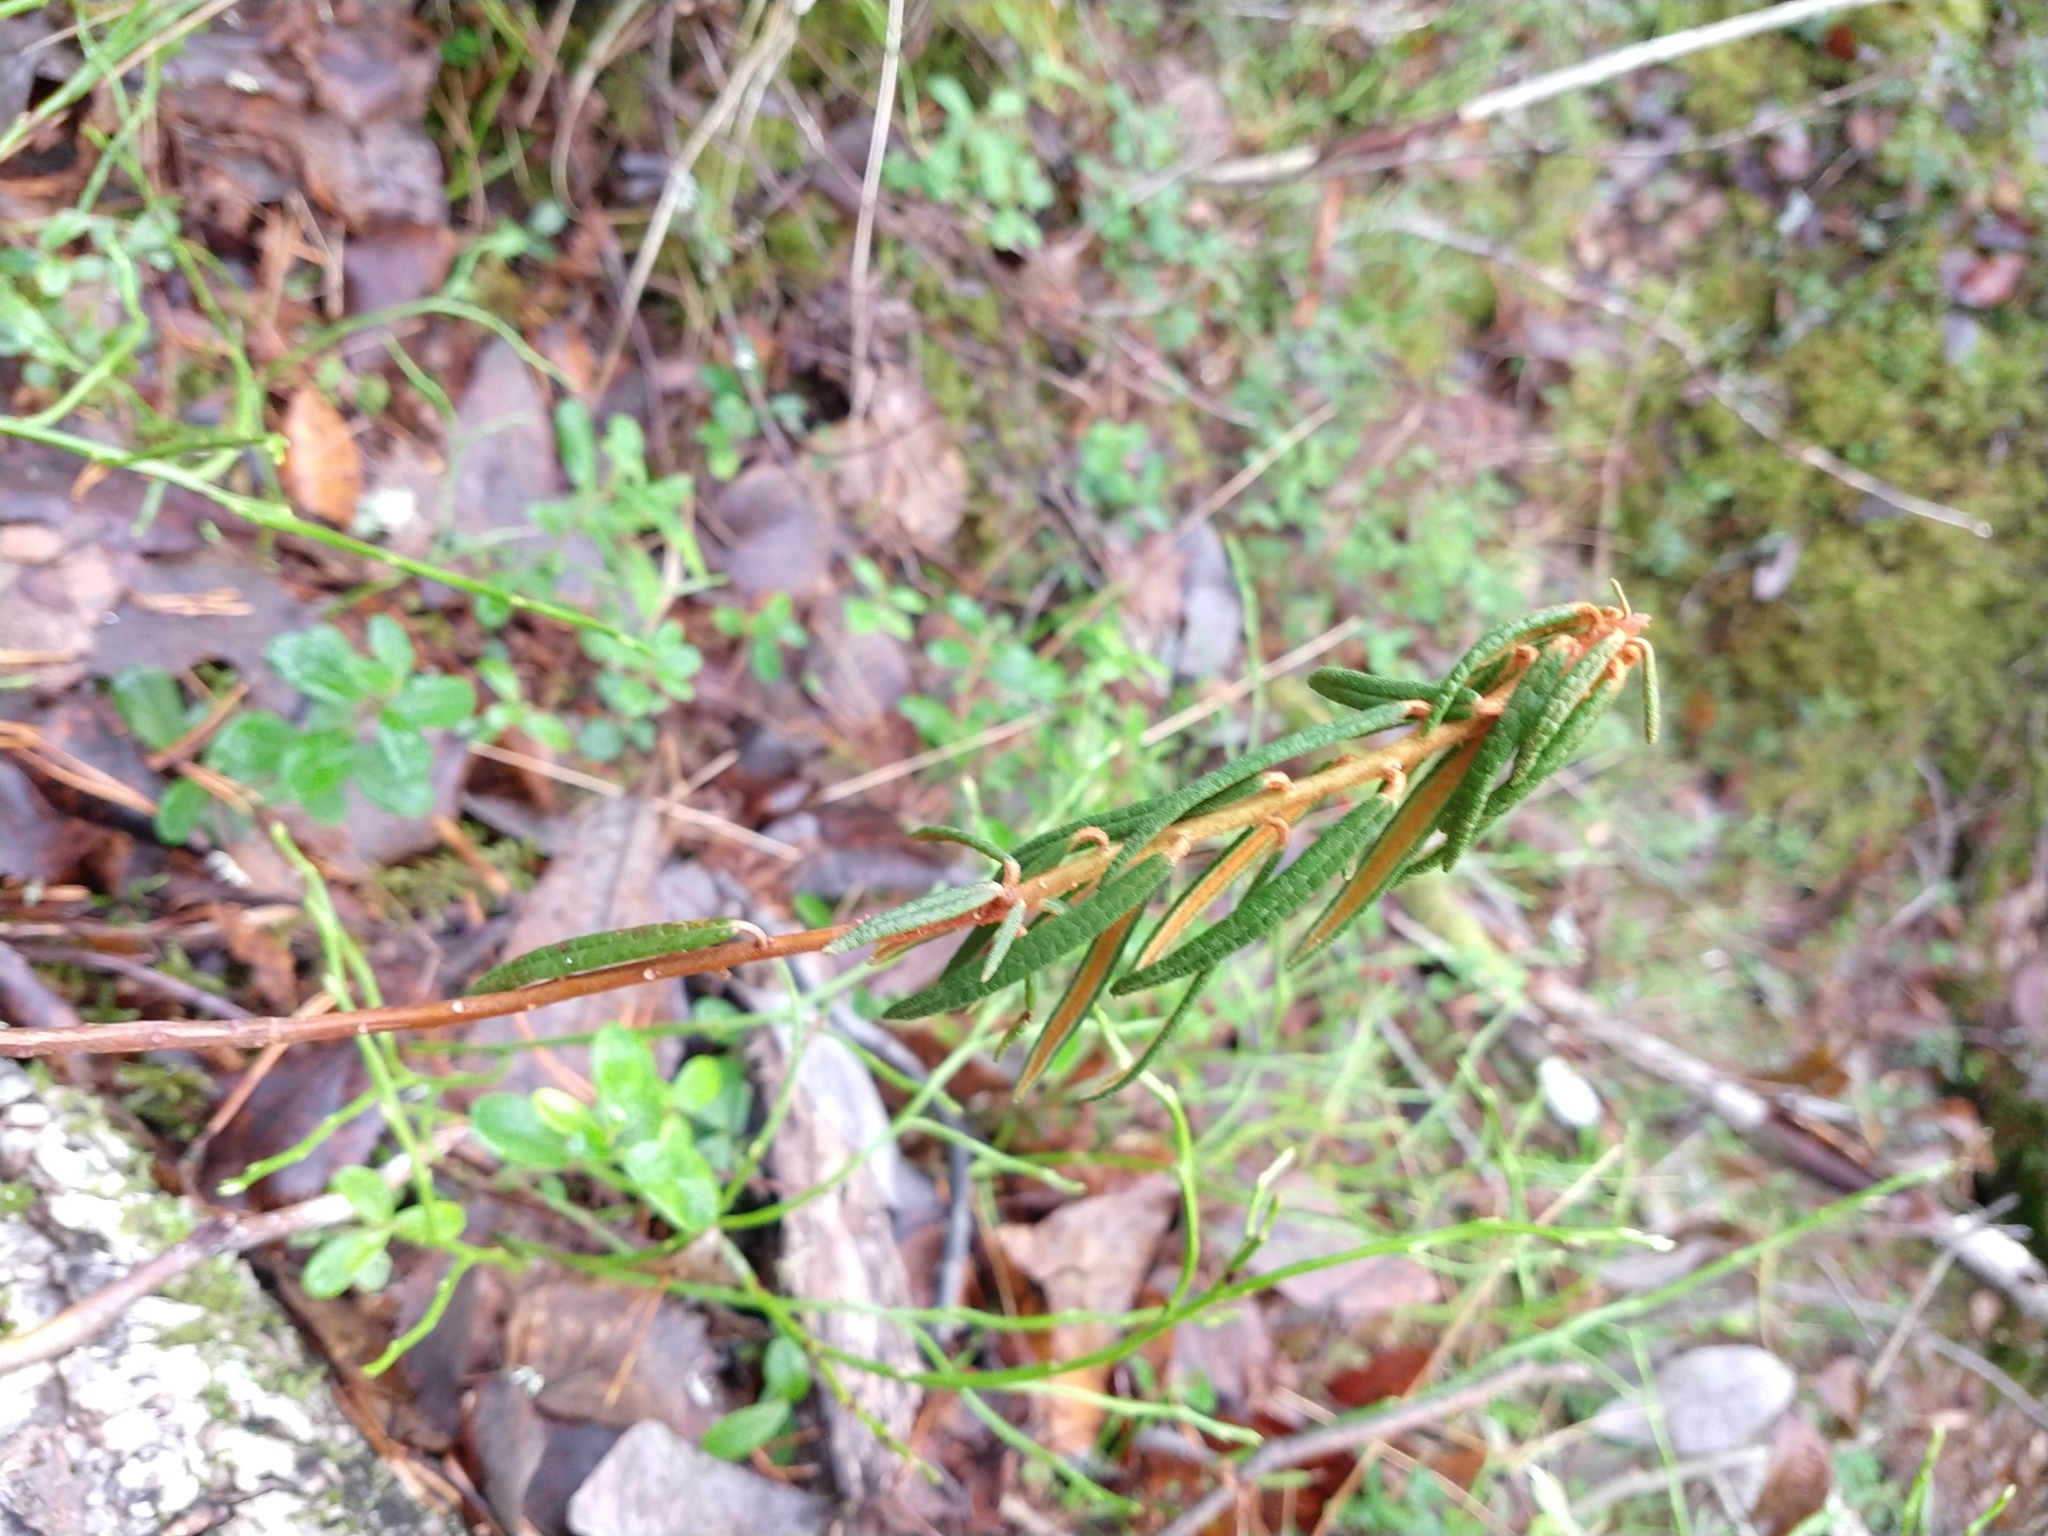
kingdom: Plantae
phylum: Tracheophyta
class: Magnoliopsida
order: Ericales
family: Ericaceae
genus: Rhododendron
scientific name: Rhododendron tomentosum
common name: Marsh labrador tea
